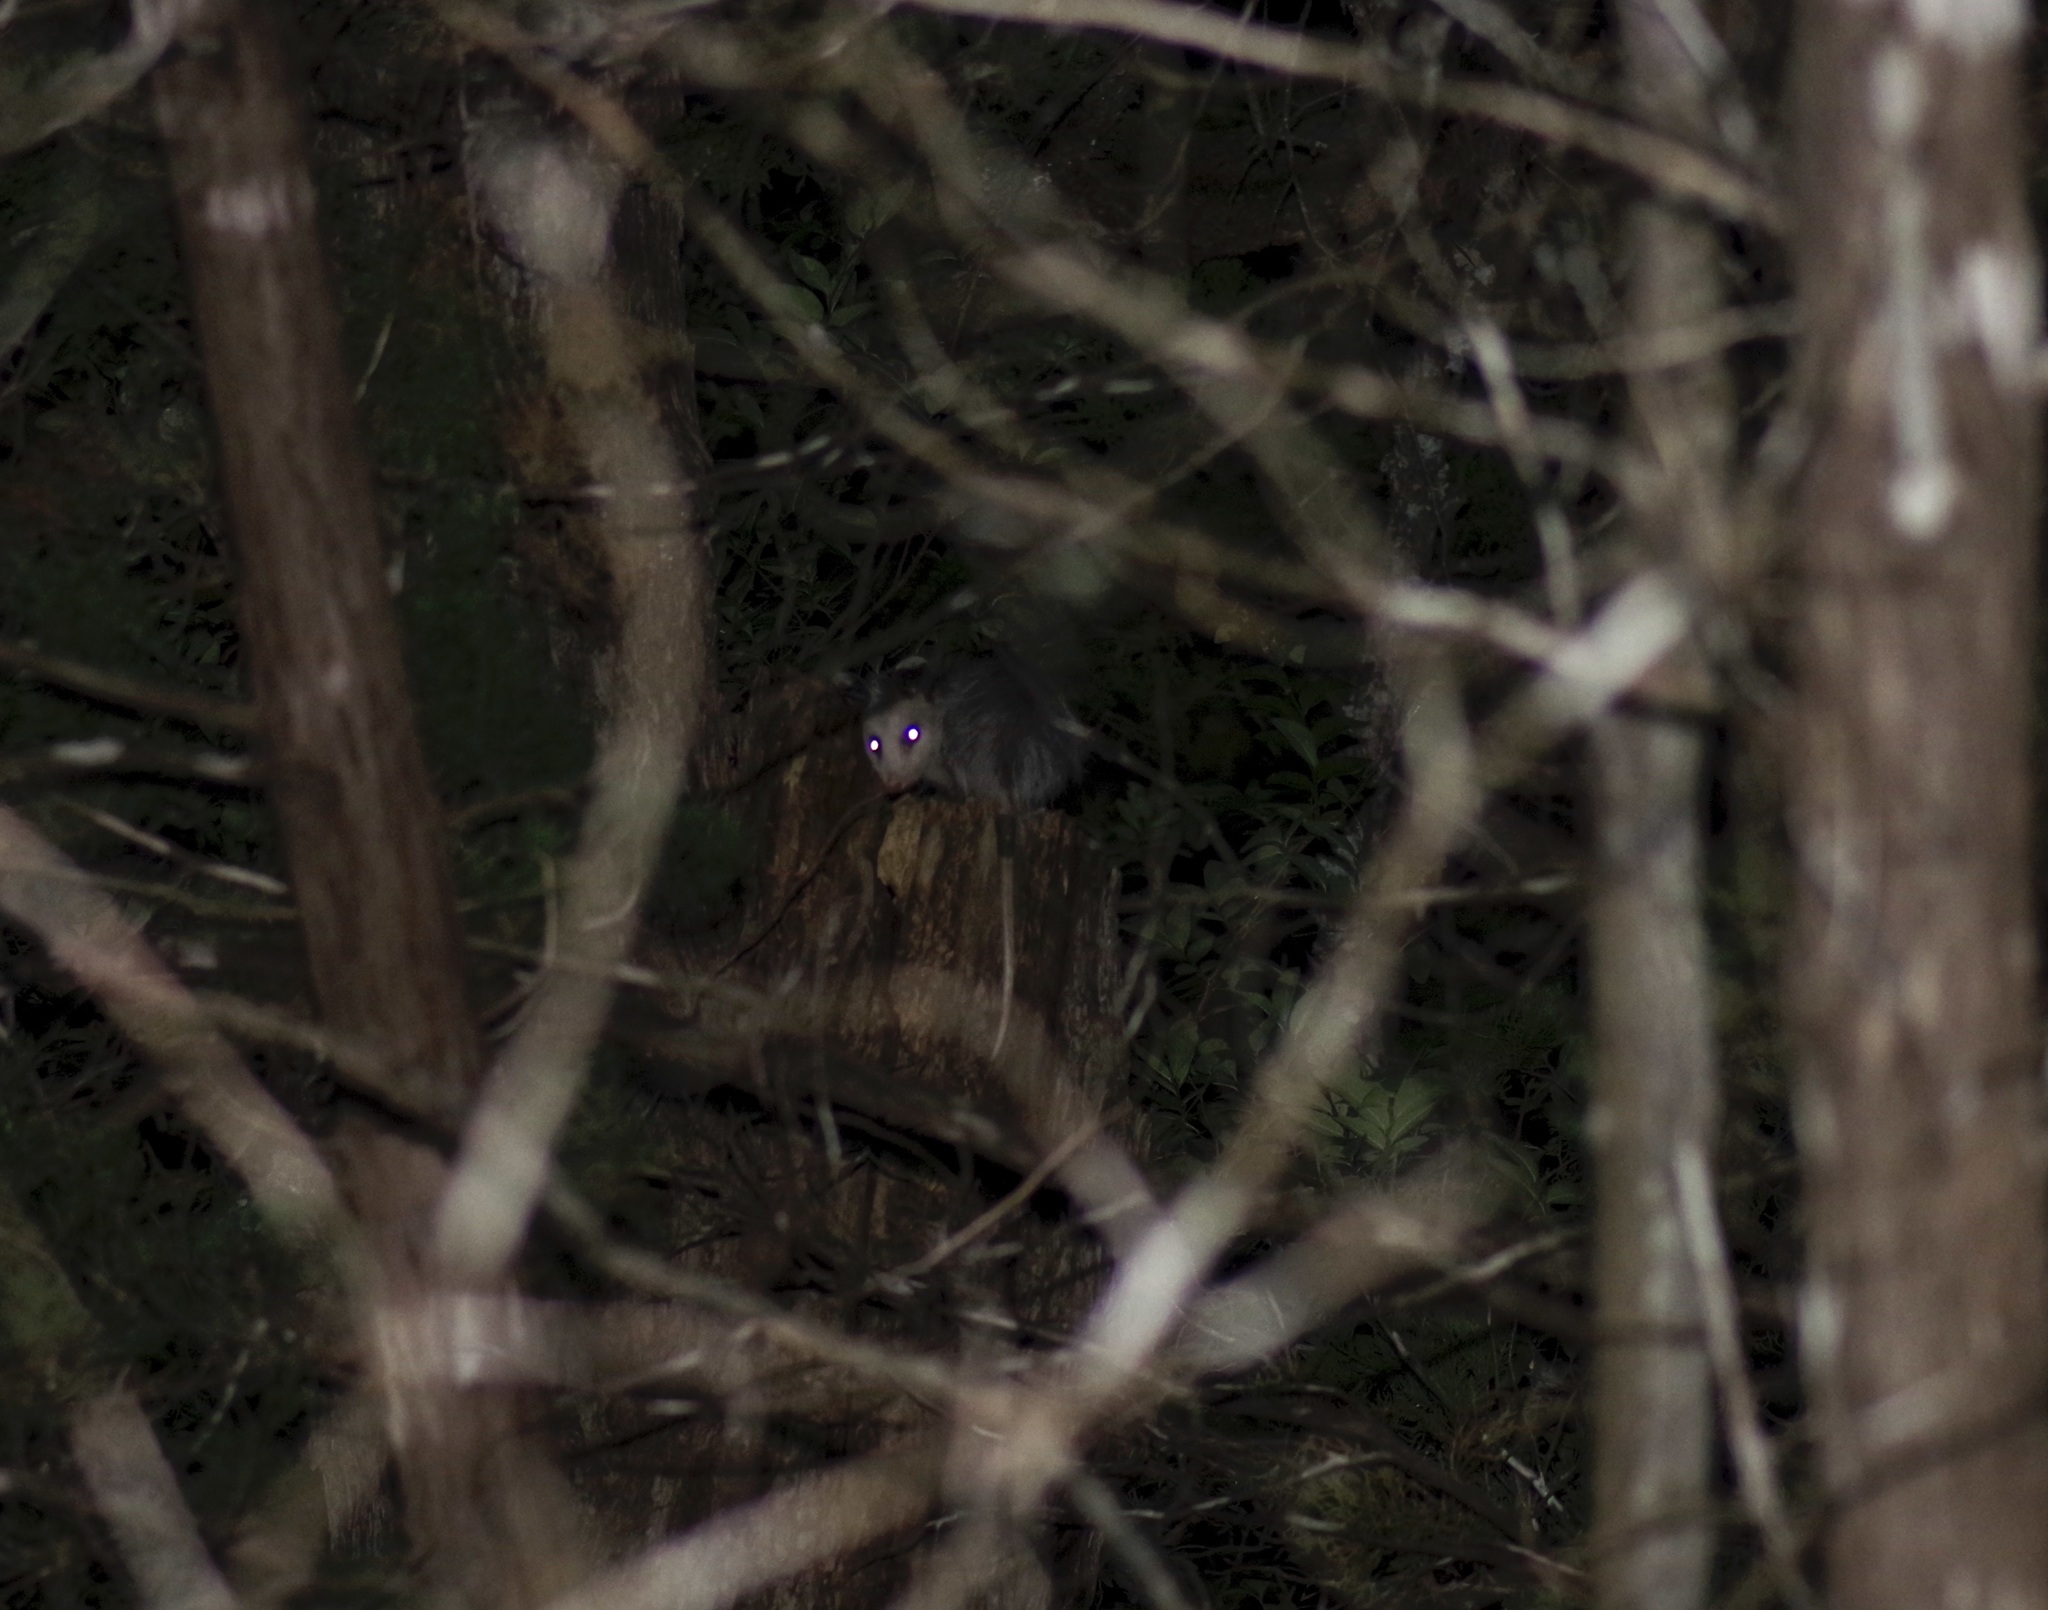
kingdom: Animalia
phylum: Chordata
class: Mammalia
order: Didelphimorphia
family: Didelphidae
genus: Didelphis
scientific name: Didelphis virginiana
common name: Virginia opossum
